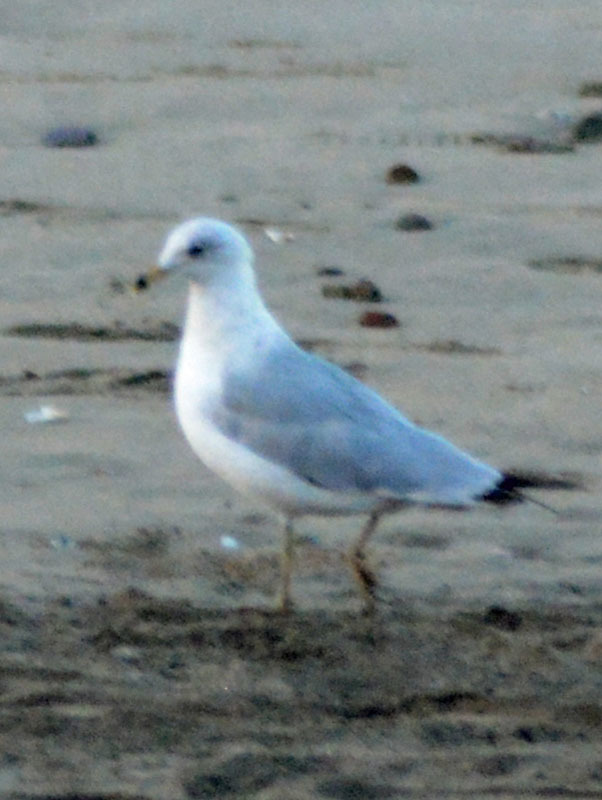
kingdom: Animalia
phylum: Chordata
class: Aves
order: Charadriiformes
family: Laridae
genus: Larus
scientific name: Larus delawarensis
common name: Ring-billed gull
